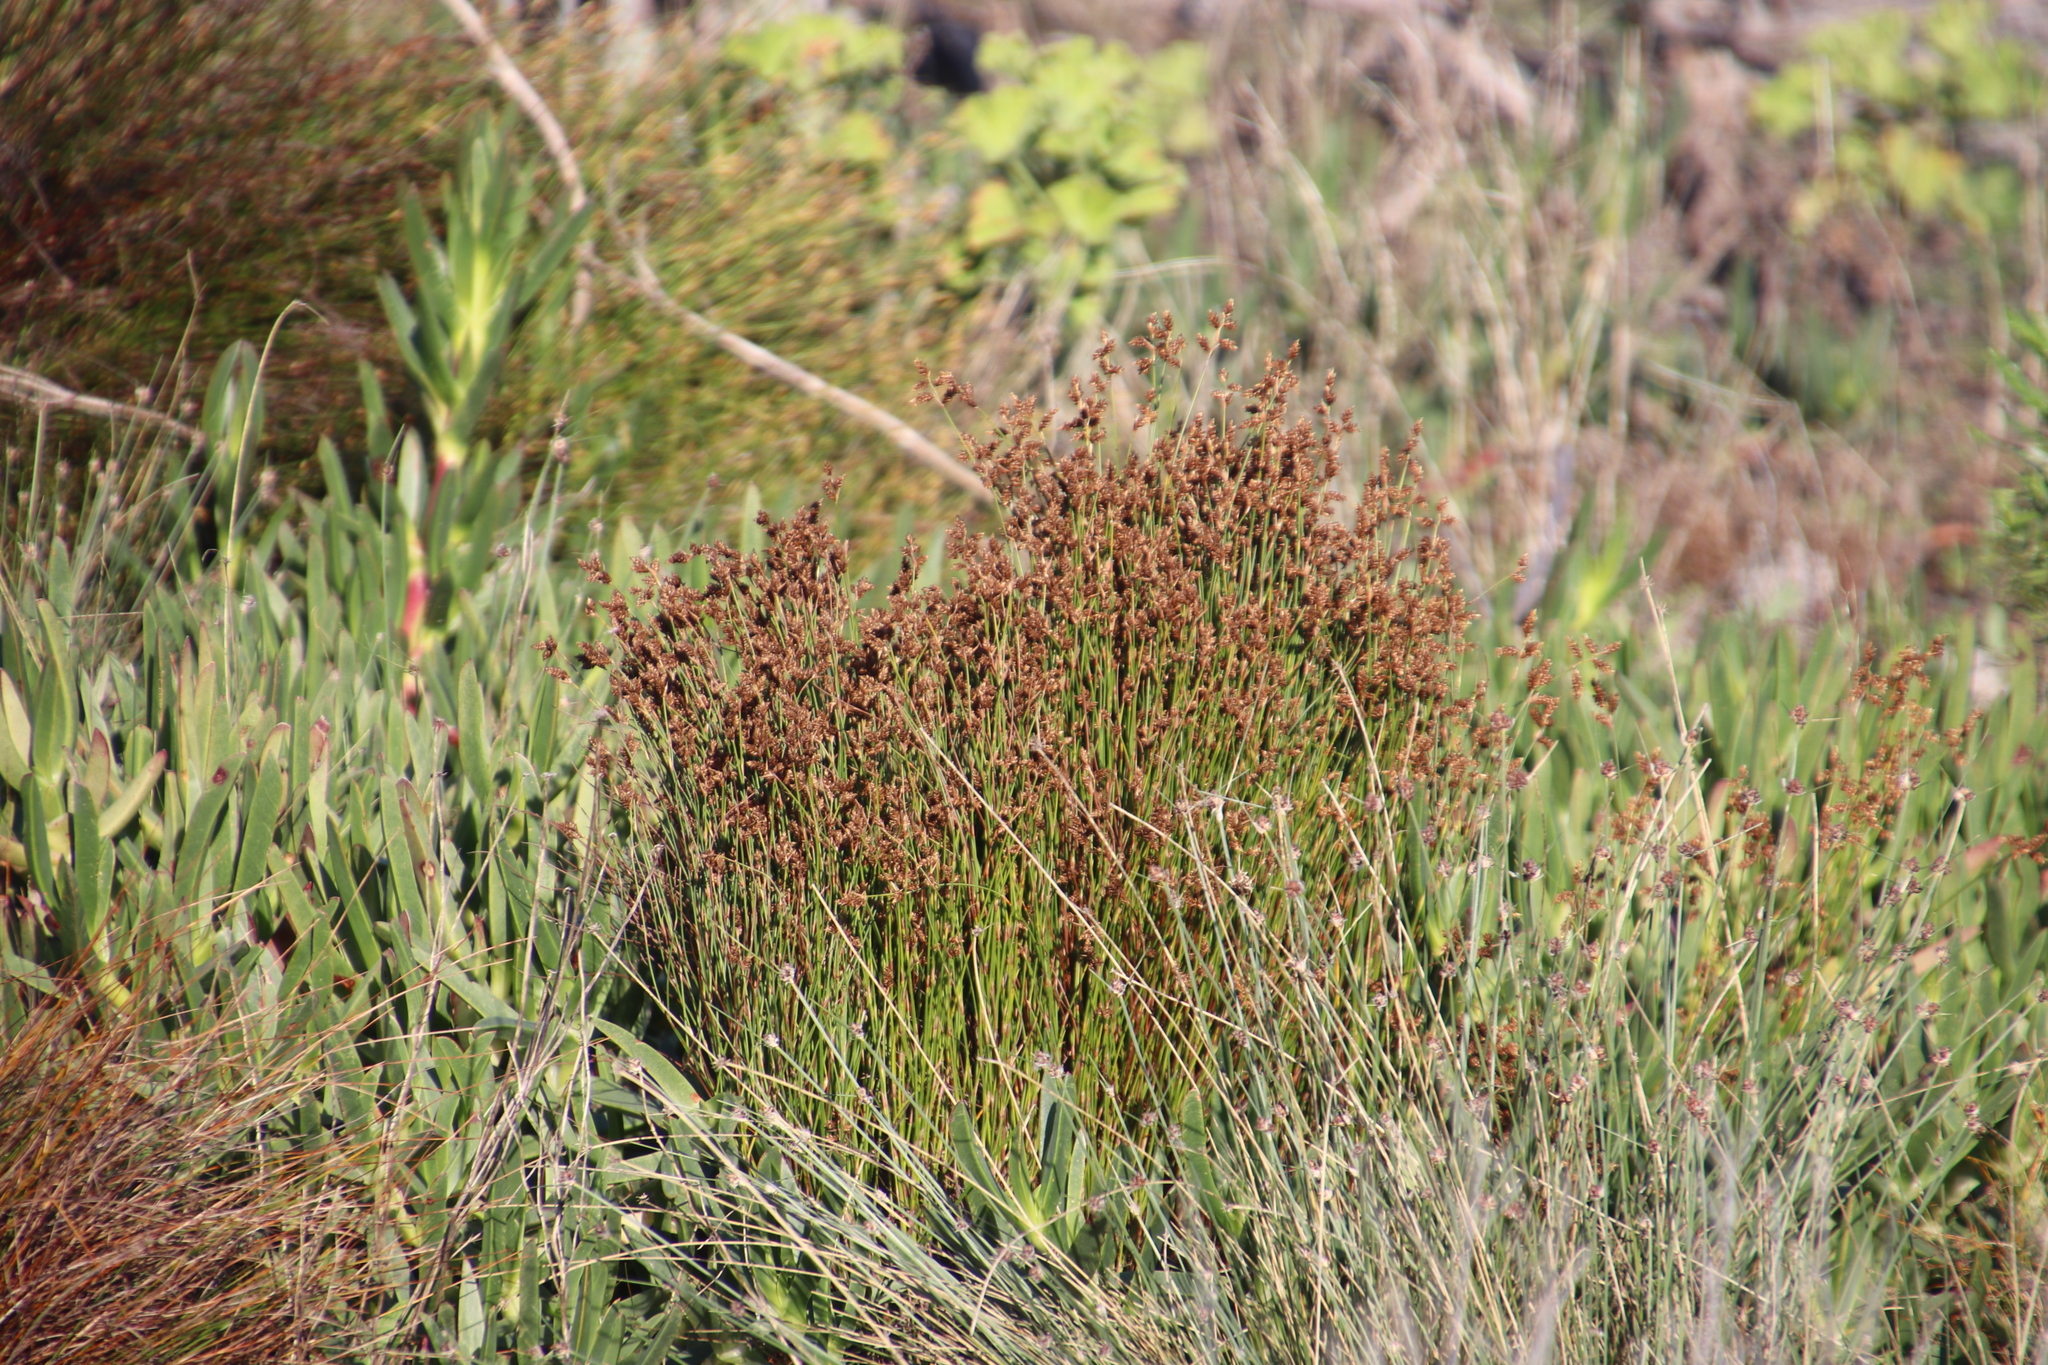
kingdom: Plantae
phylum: Tracheophyta
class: Liliopsida
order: Poales
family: Restionaceae
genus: Mastersiella
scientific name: Mastersiella digitata
